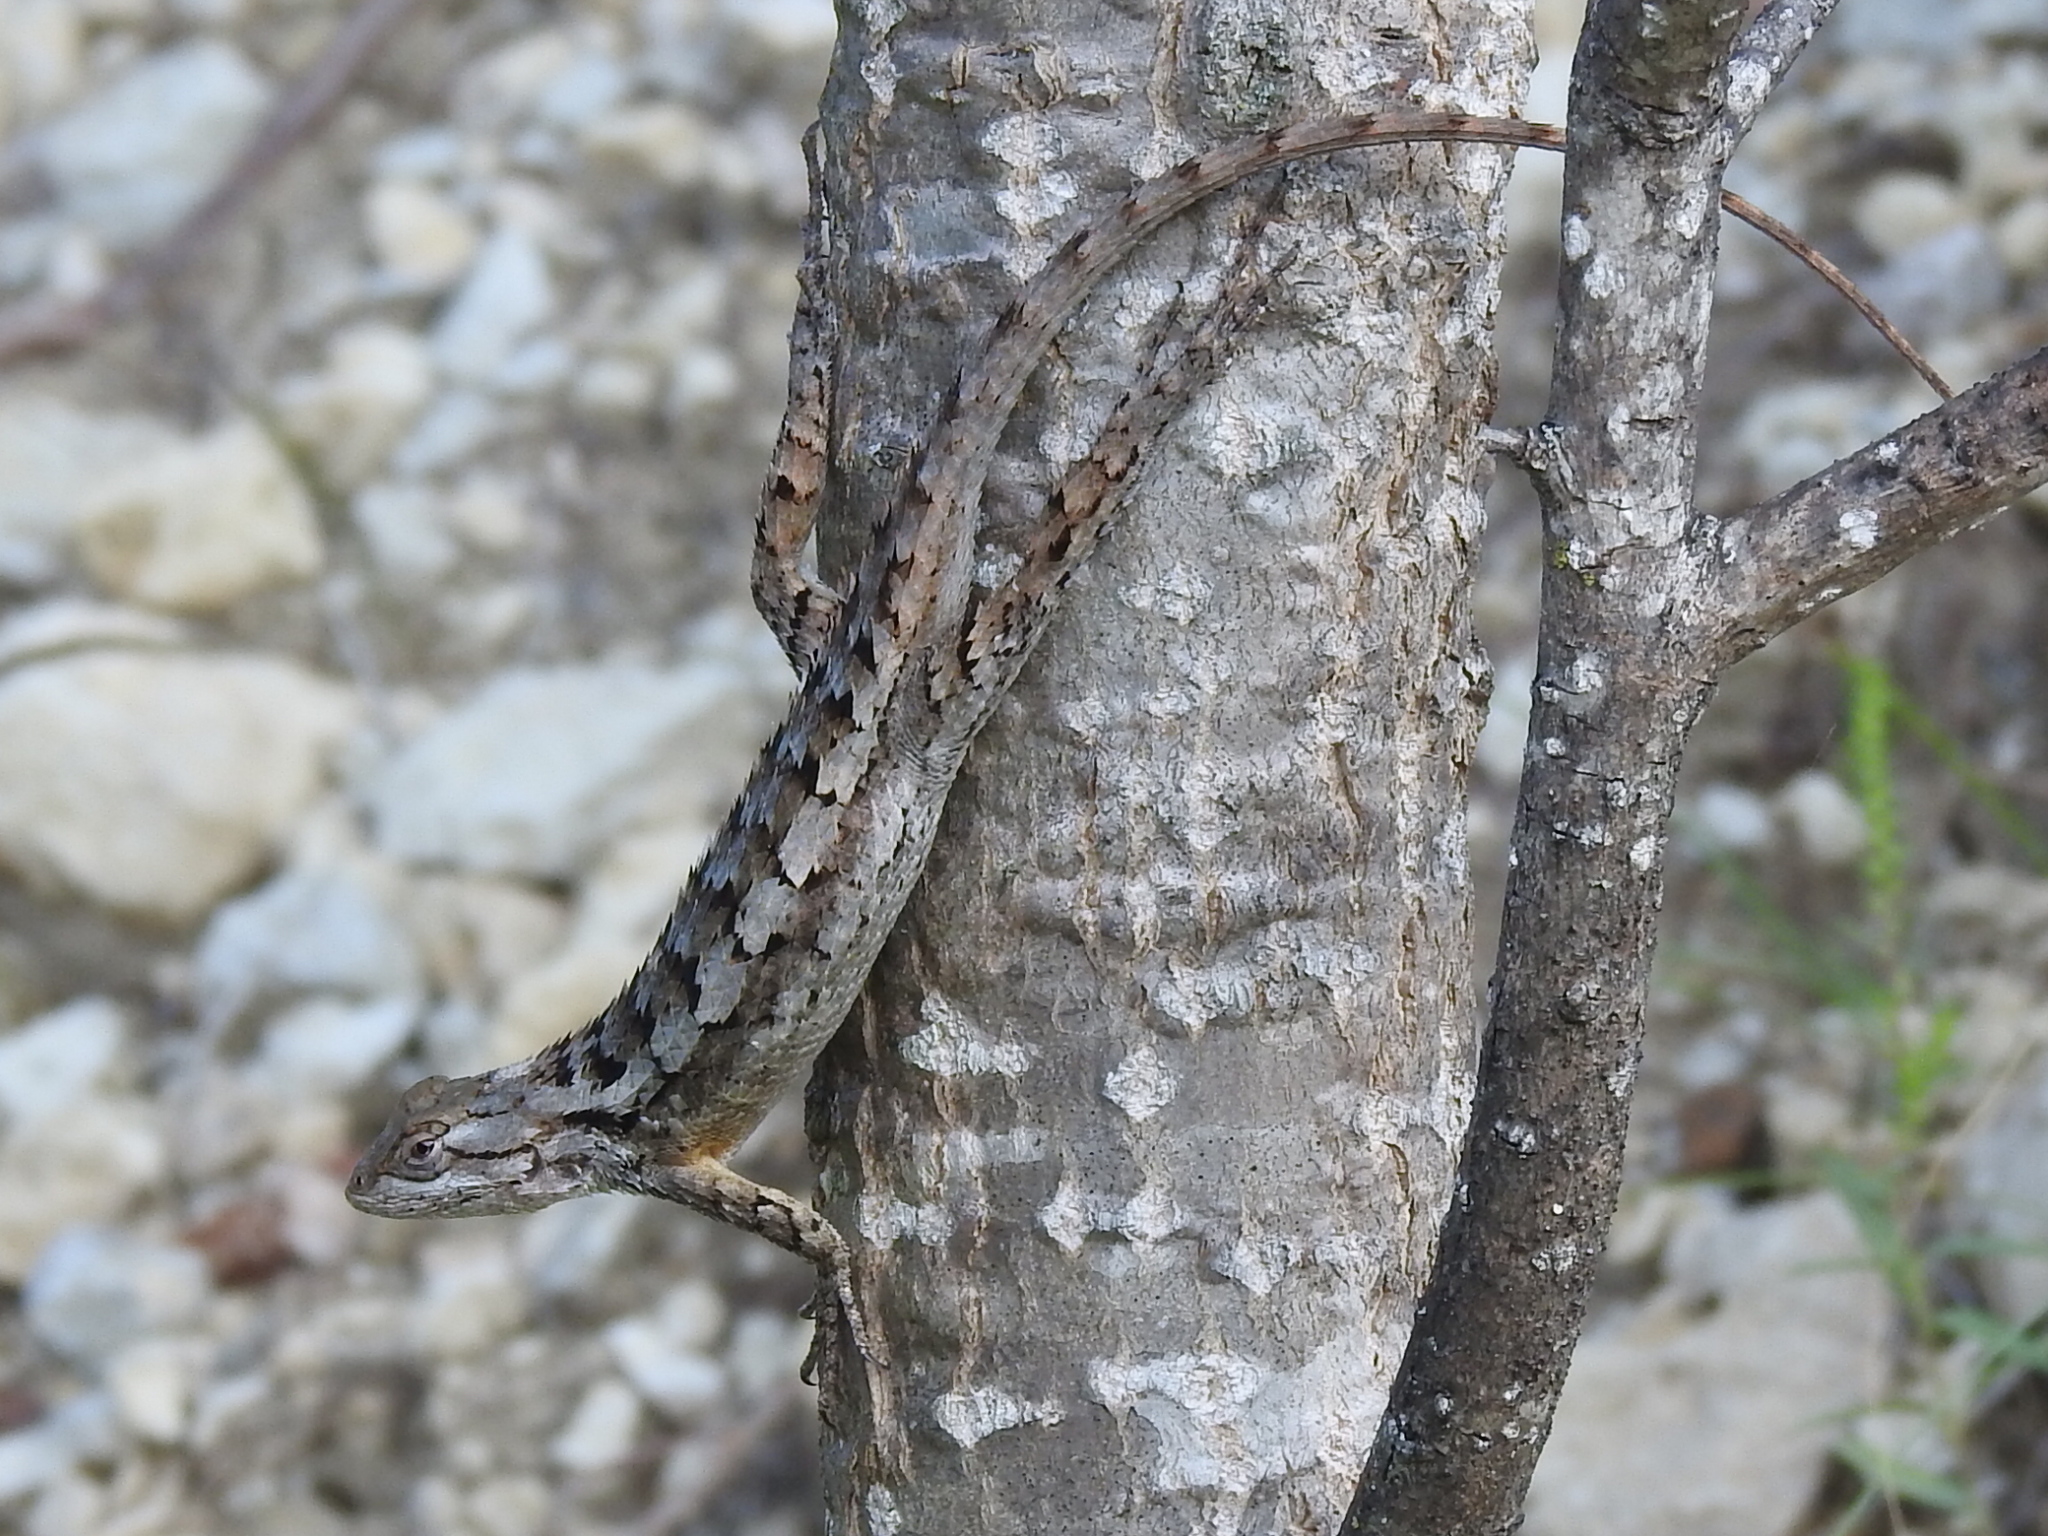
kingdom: Animalia
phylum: Chordata
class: Squamata
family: Phrynosomatidae
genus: Sceloporus
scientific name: Sceloporus olivaceus
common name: Texas spiny lizard
